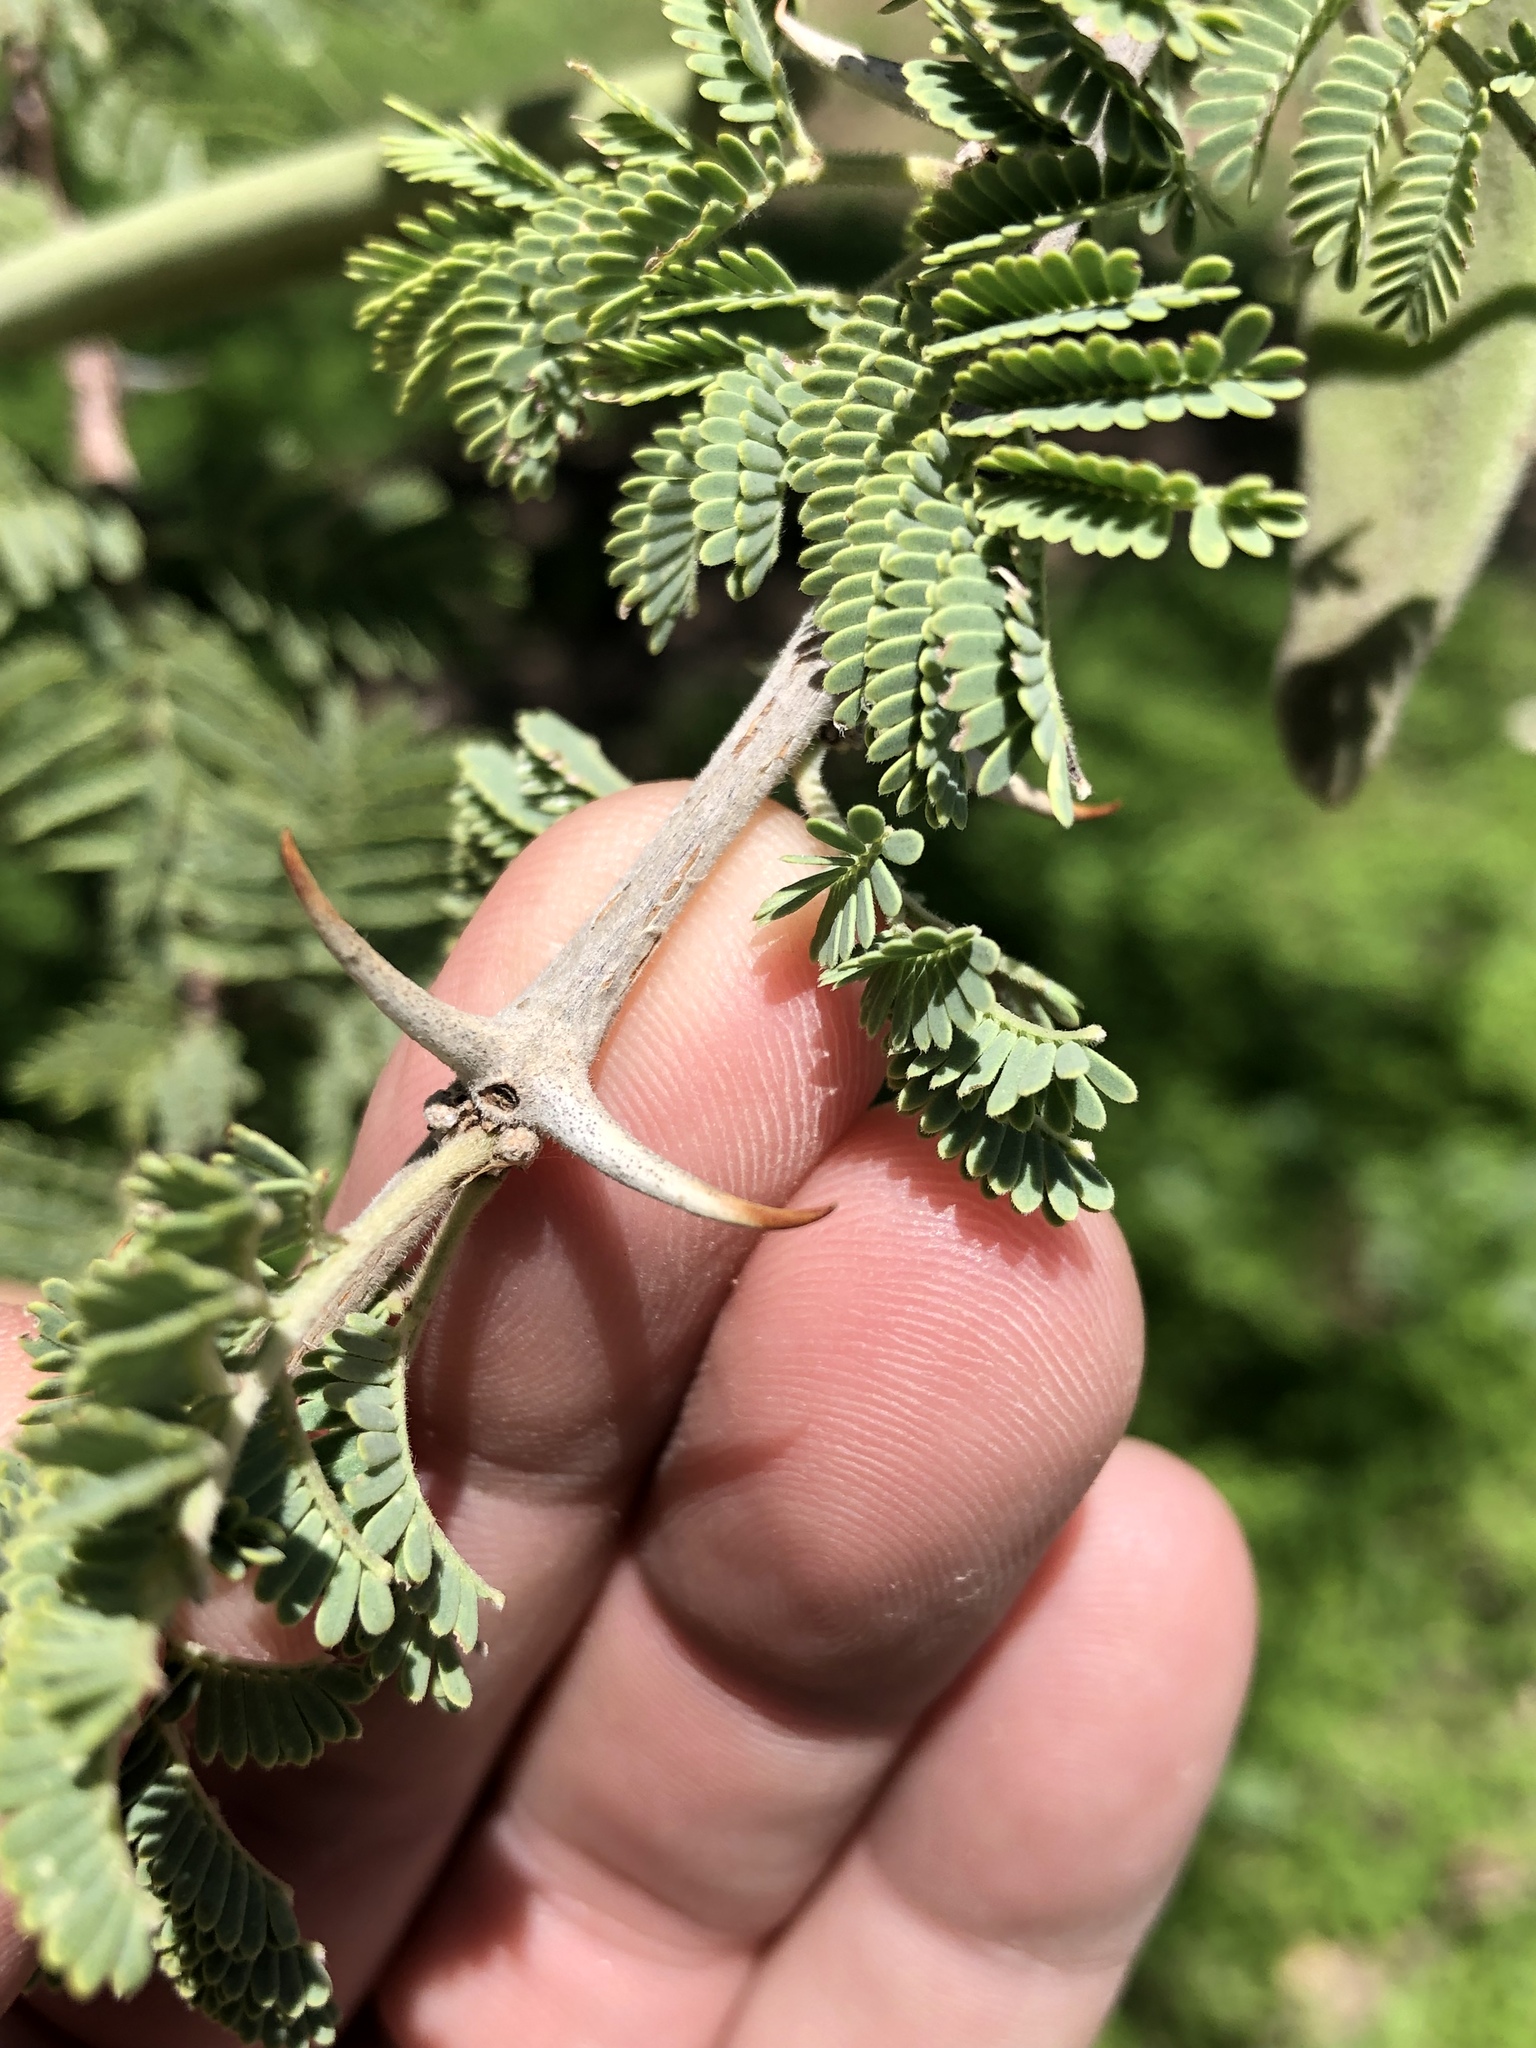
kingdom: Plantae
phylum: Tracheophyta
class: Magnoliopsida
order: Fabales
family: Fabaceae
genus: Vachellia
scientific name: Vachellia hebeclada
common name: Candle thorn
